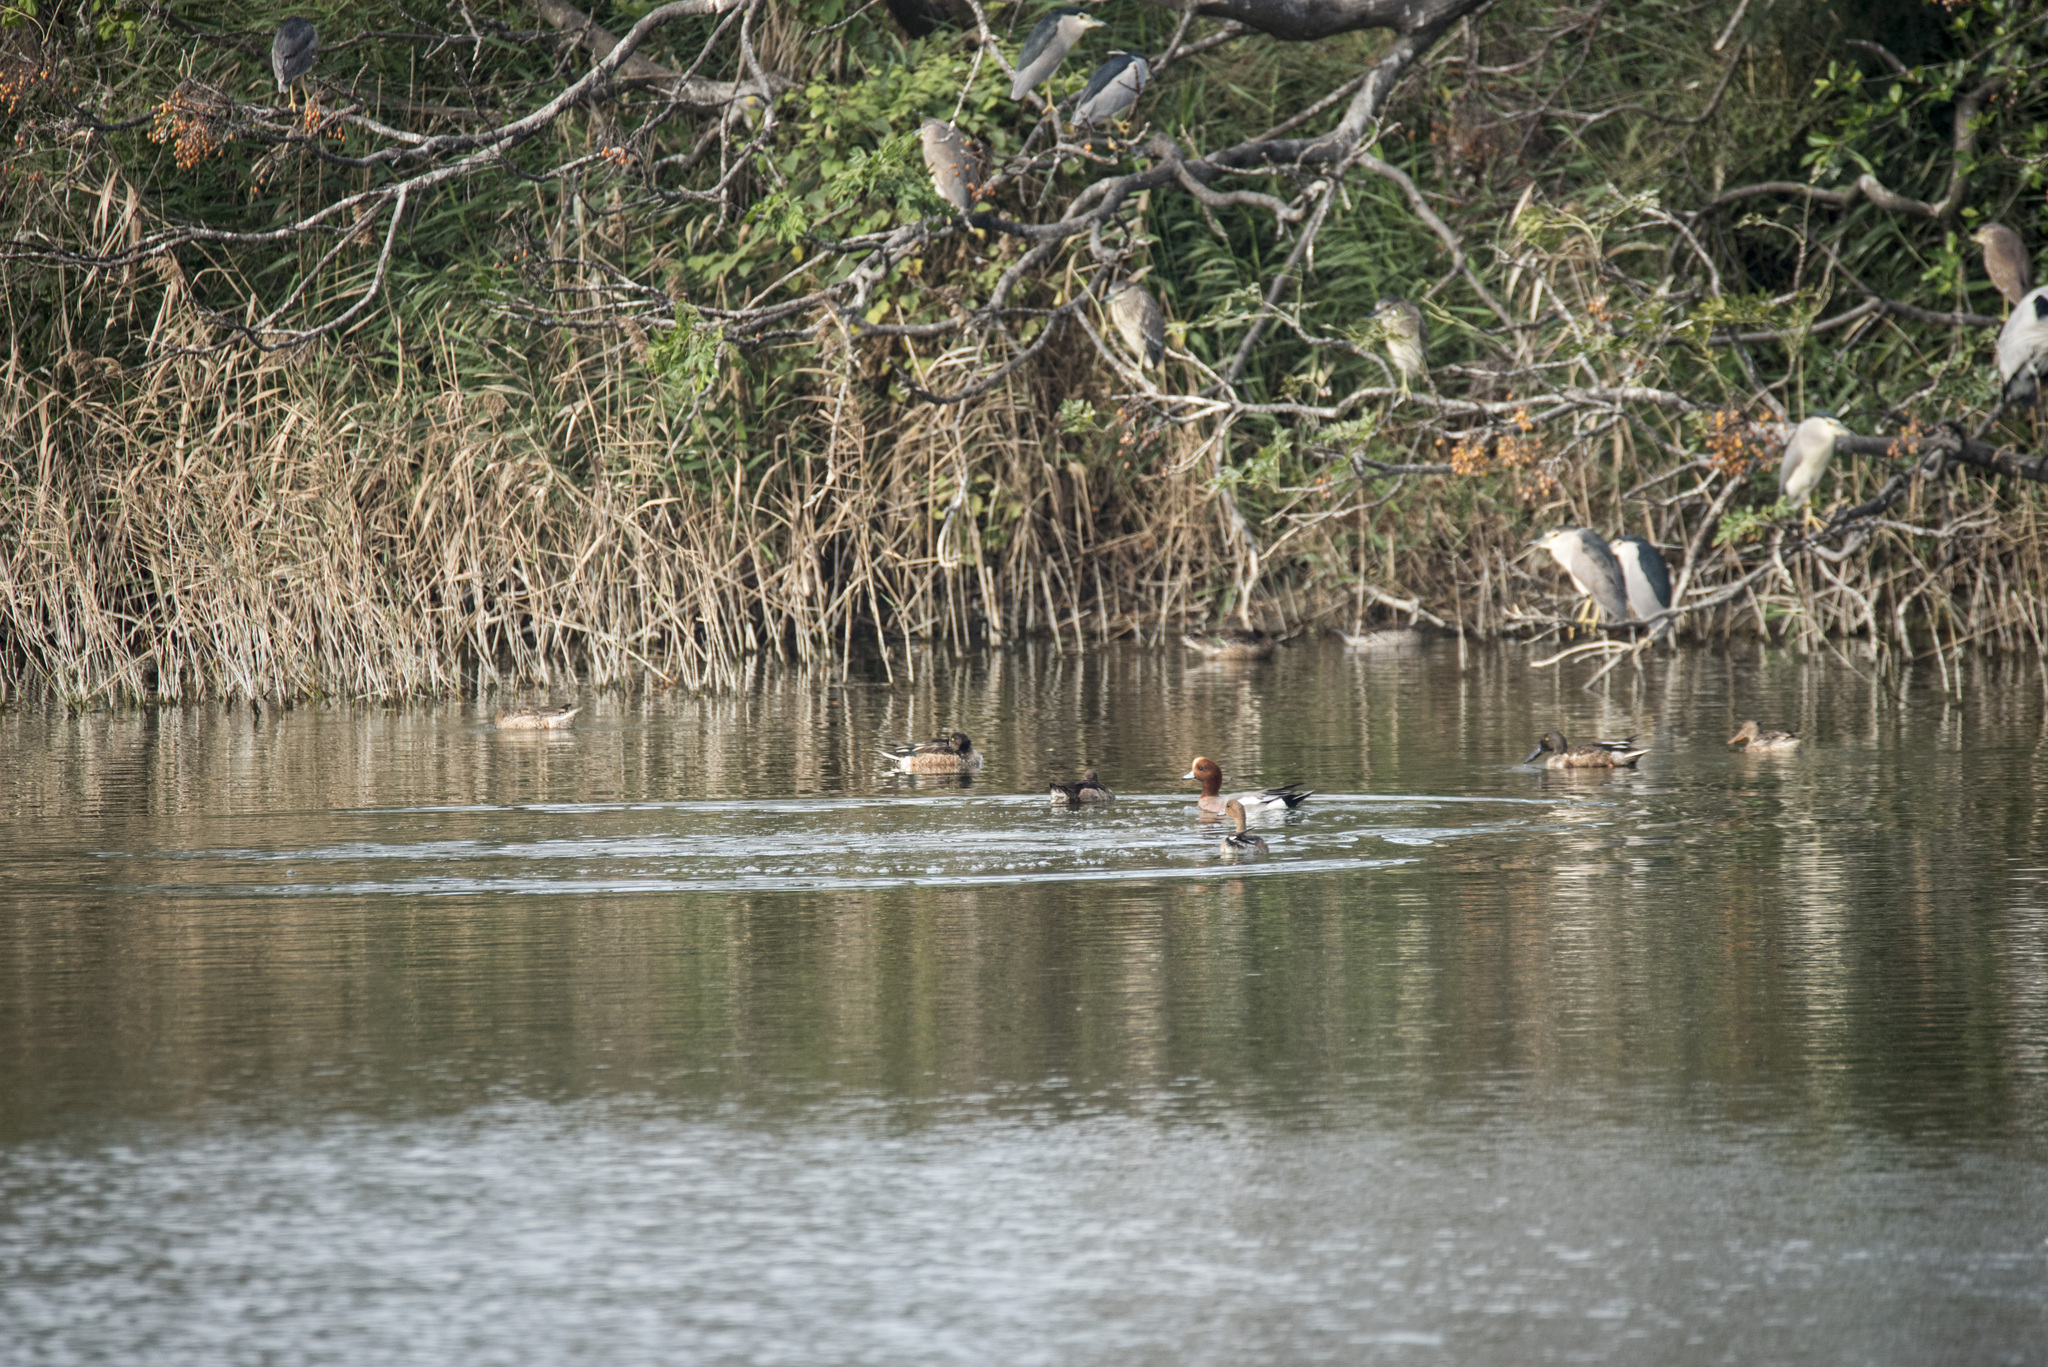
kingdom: Animalia
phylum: Chordata
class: Aves
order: Anseriformes
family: Anatidae
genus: Mareca
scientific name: Mareca penelope
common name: Eurasian wigeon
